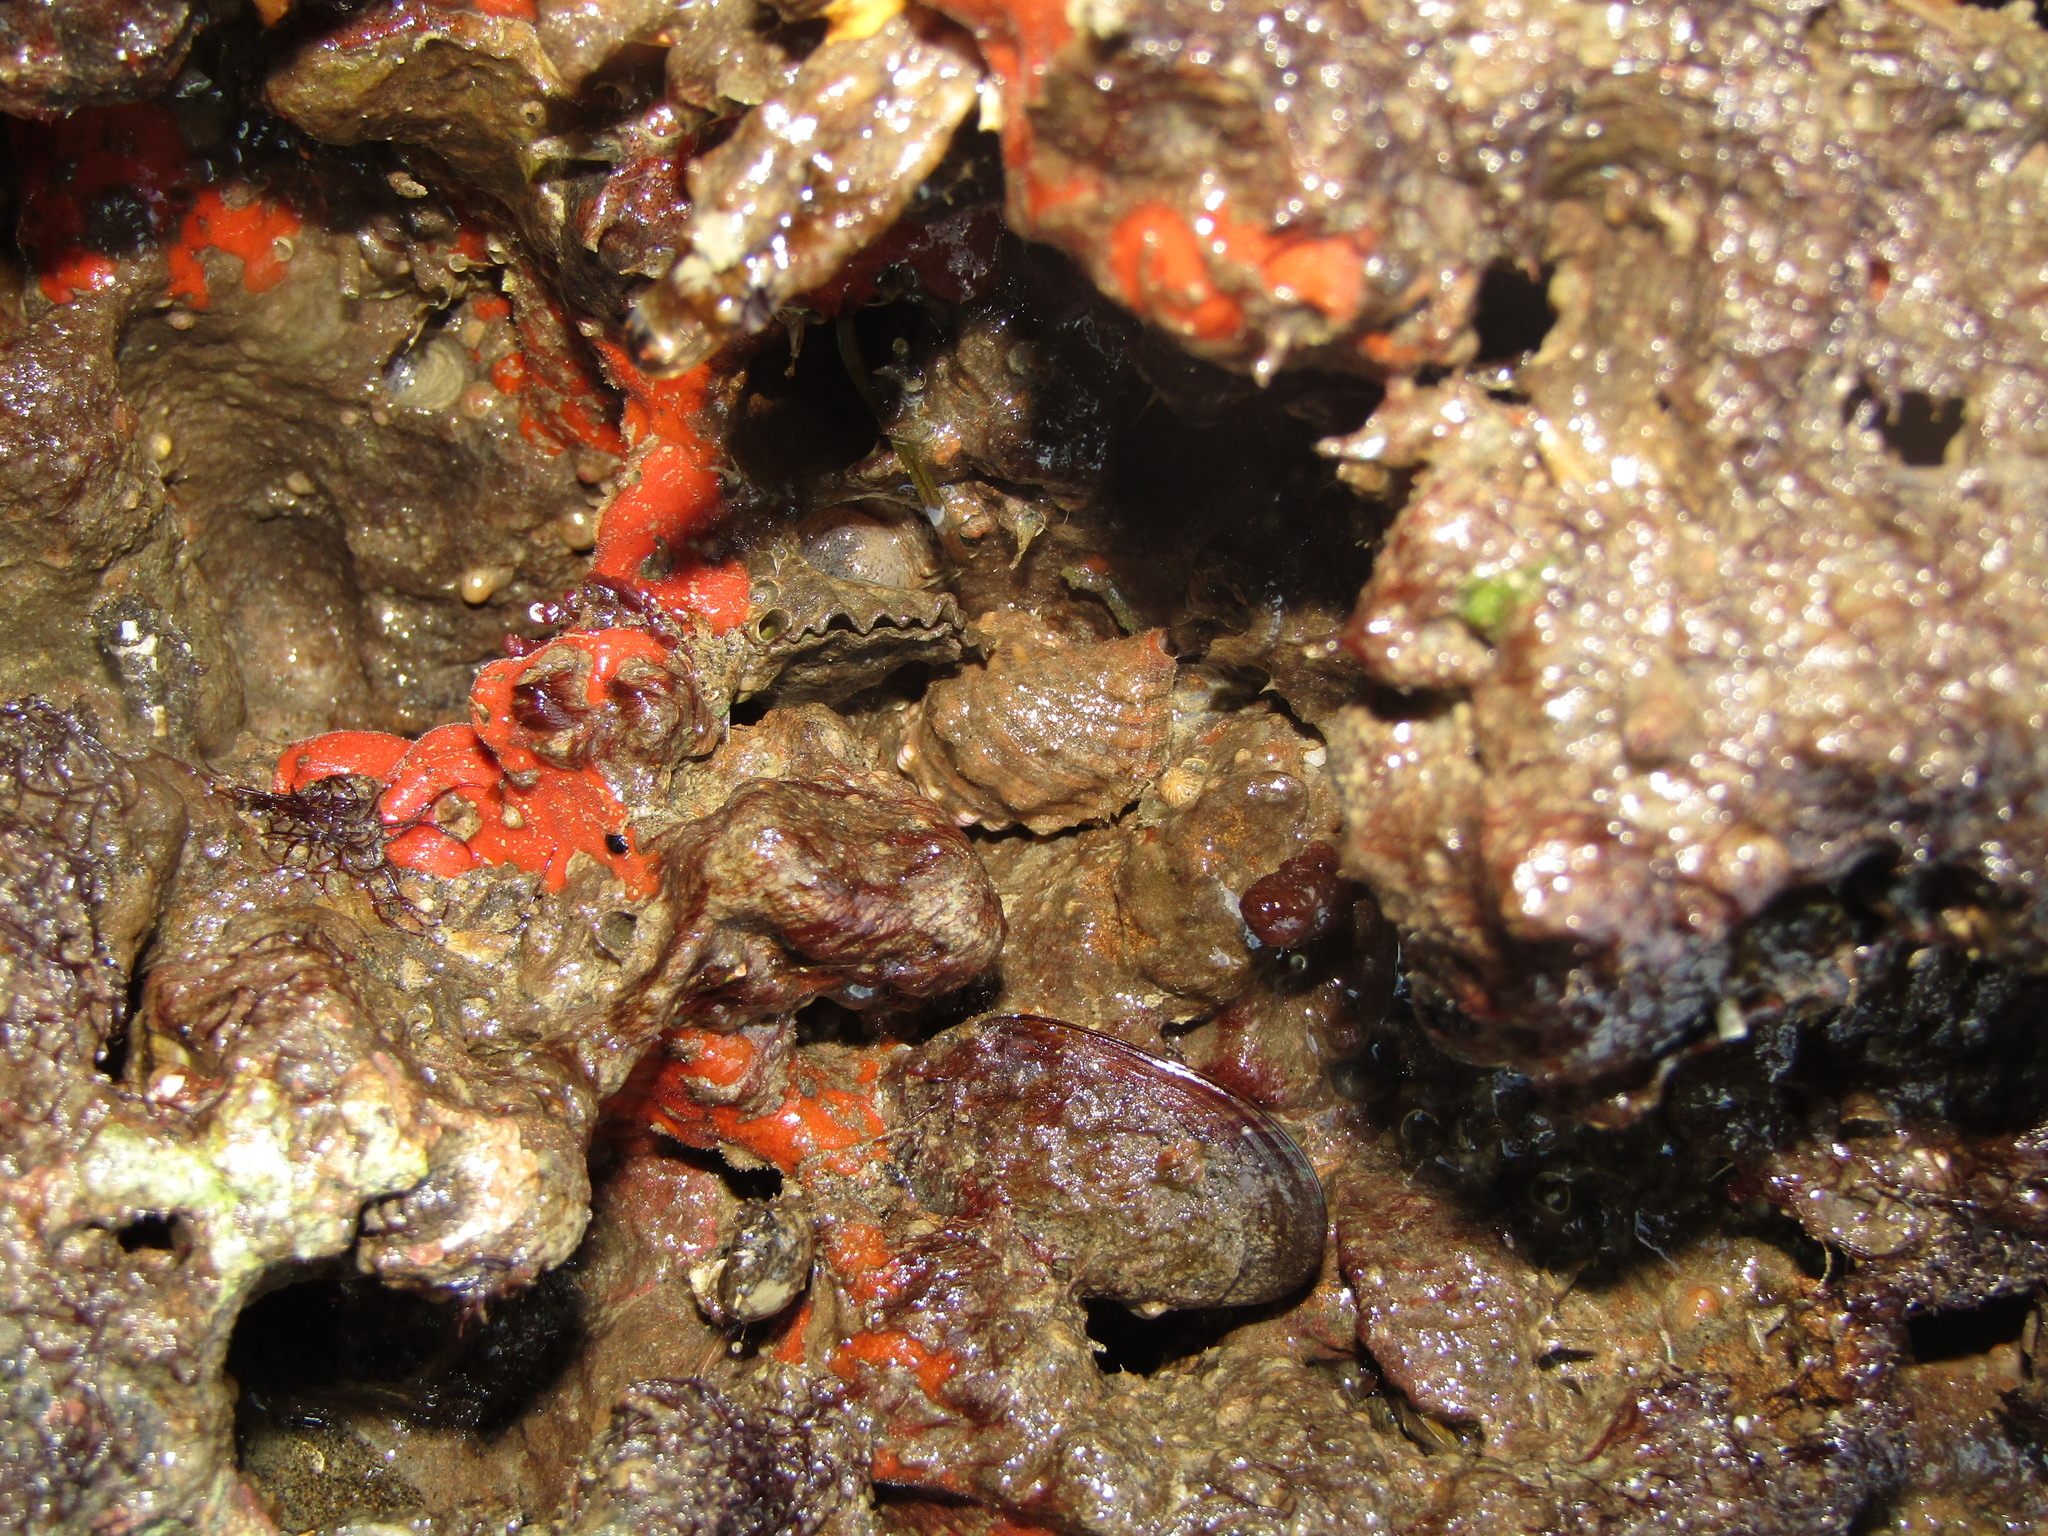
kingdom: Animalia
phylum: Mollusca
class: Gastropoda
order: Littorinimorpha
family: Cymatiidae
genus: Cabestana
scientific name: Cabestana spengleri
